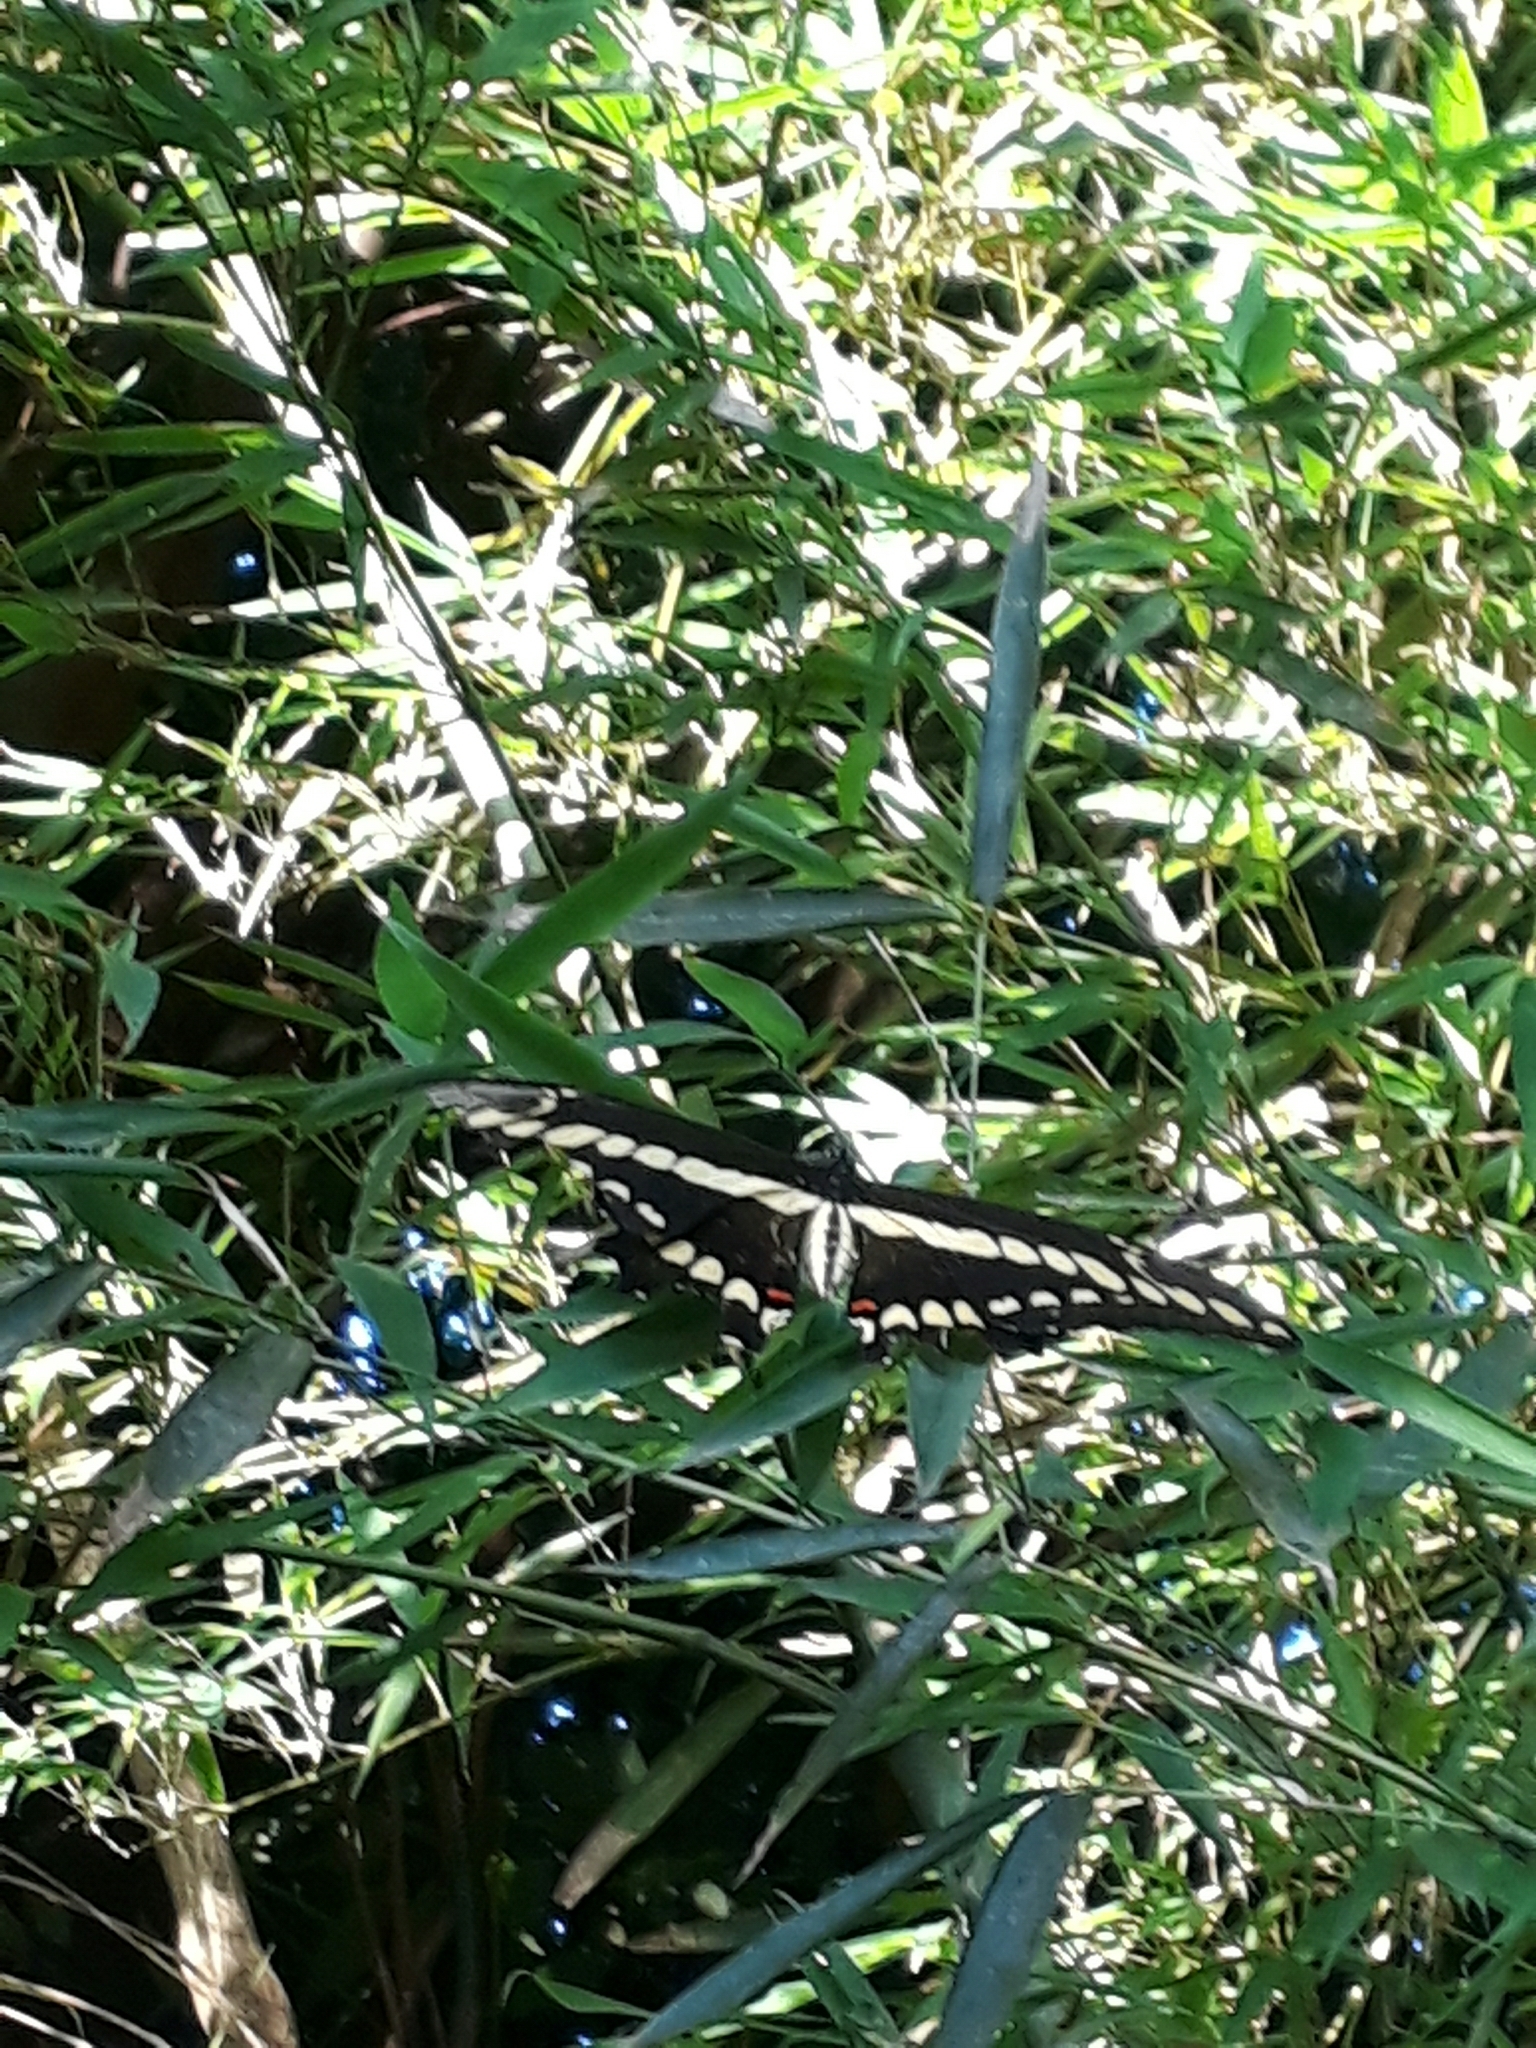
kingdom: Animalia
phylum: Arthropoda
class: Insecta
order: Lepidoptera
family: Papilionidae
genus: Papilio
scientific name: Papilio thoas
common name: King swallowtail
